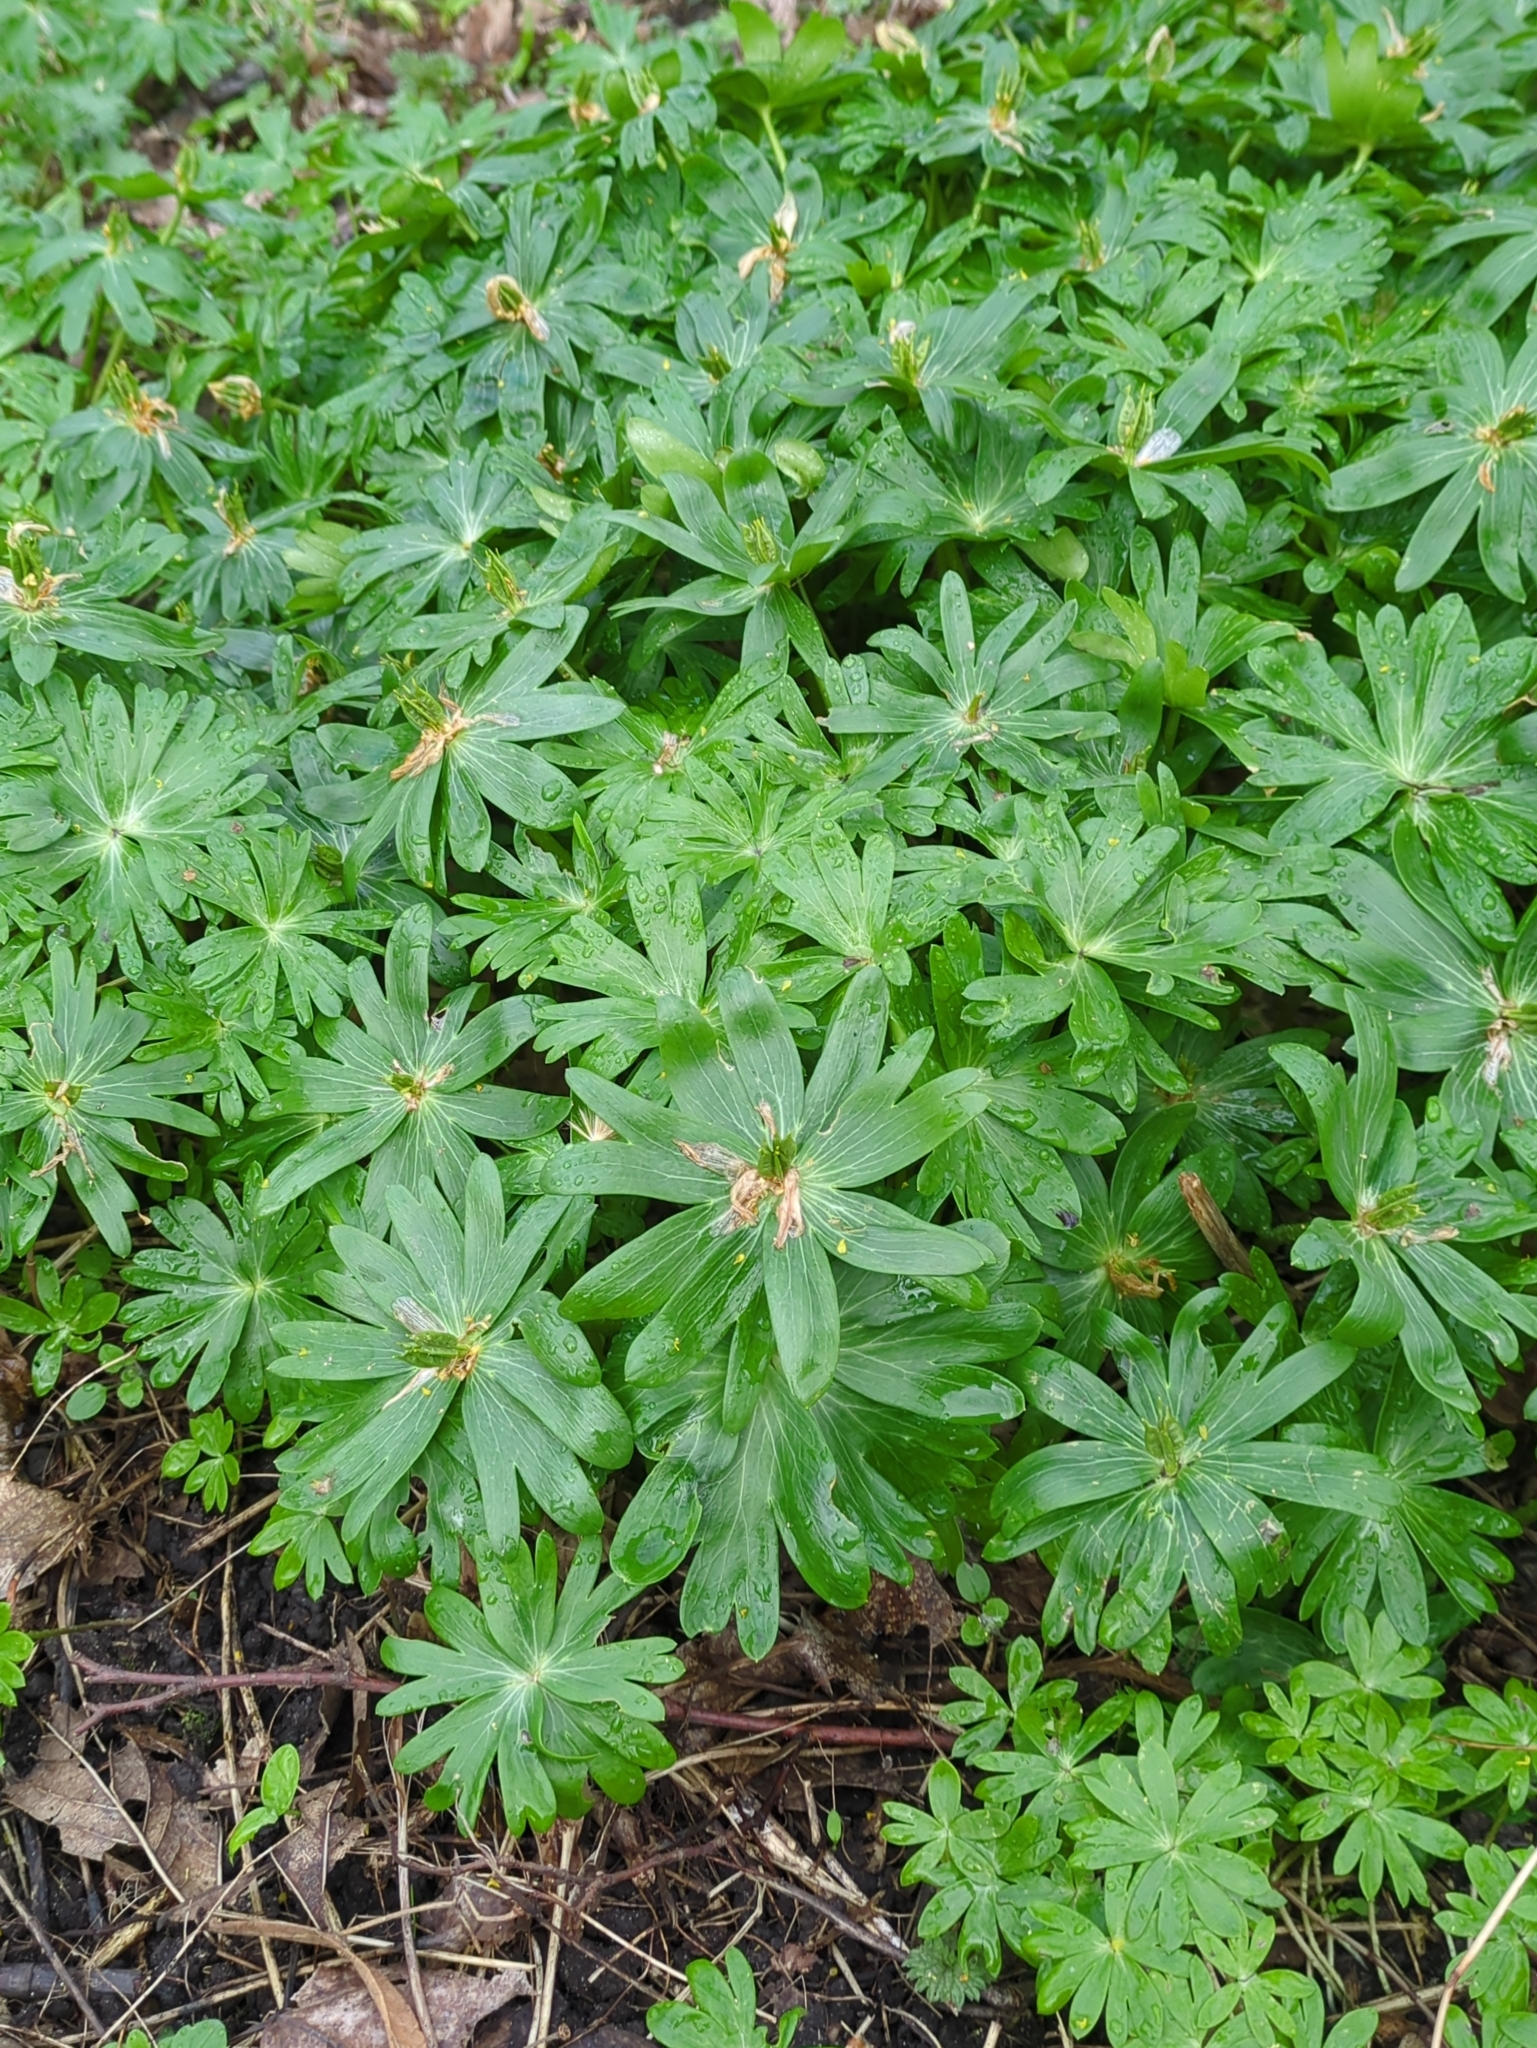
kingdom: Plantae
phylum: Tracheophyta
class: Magnoliopsida
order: Ranunculales
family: Ranunculaceae
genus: Eranthis
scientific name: Eranthis hyemalis
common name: Winter aconite
